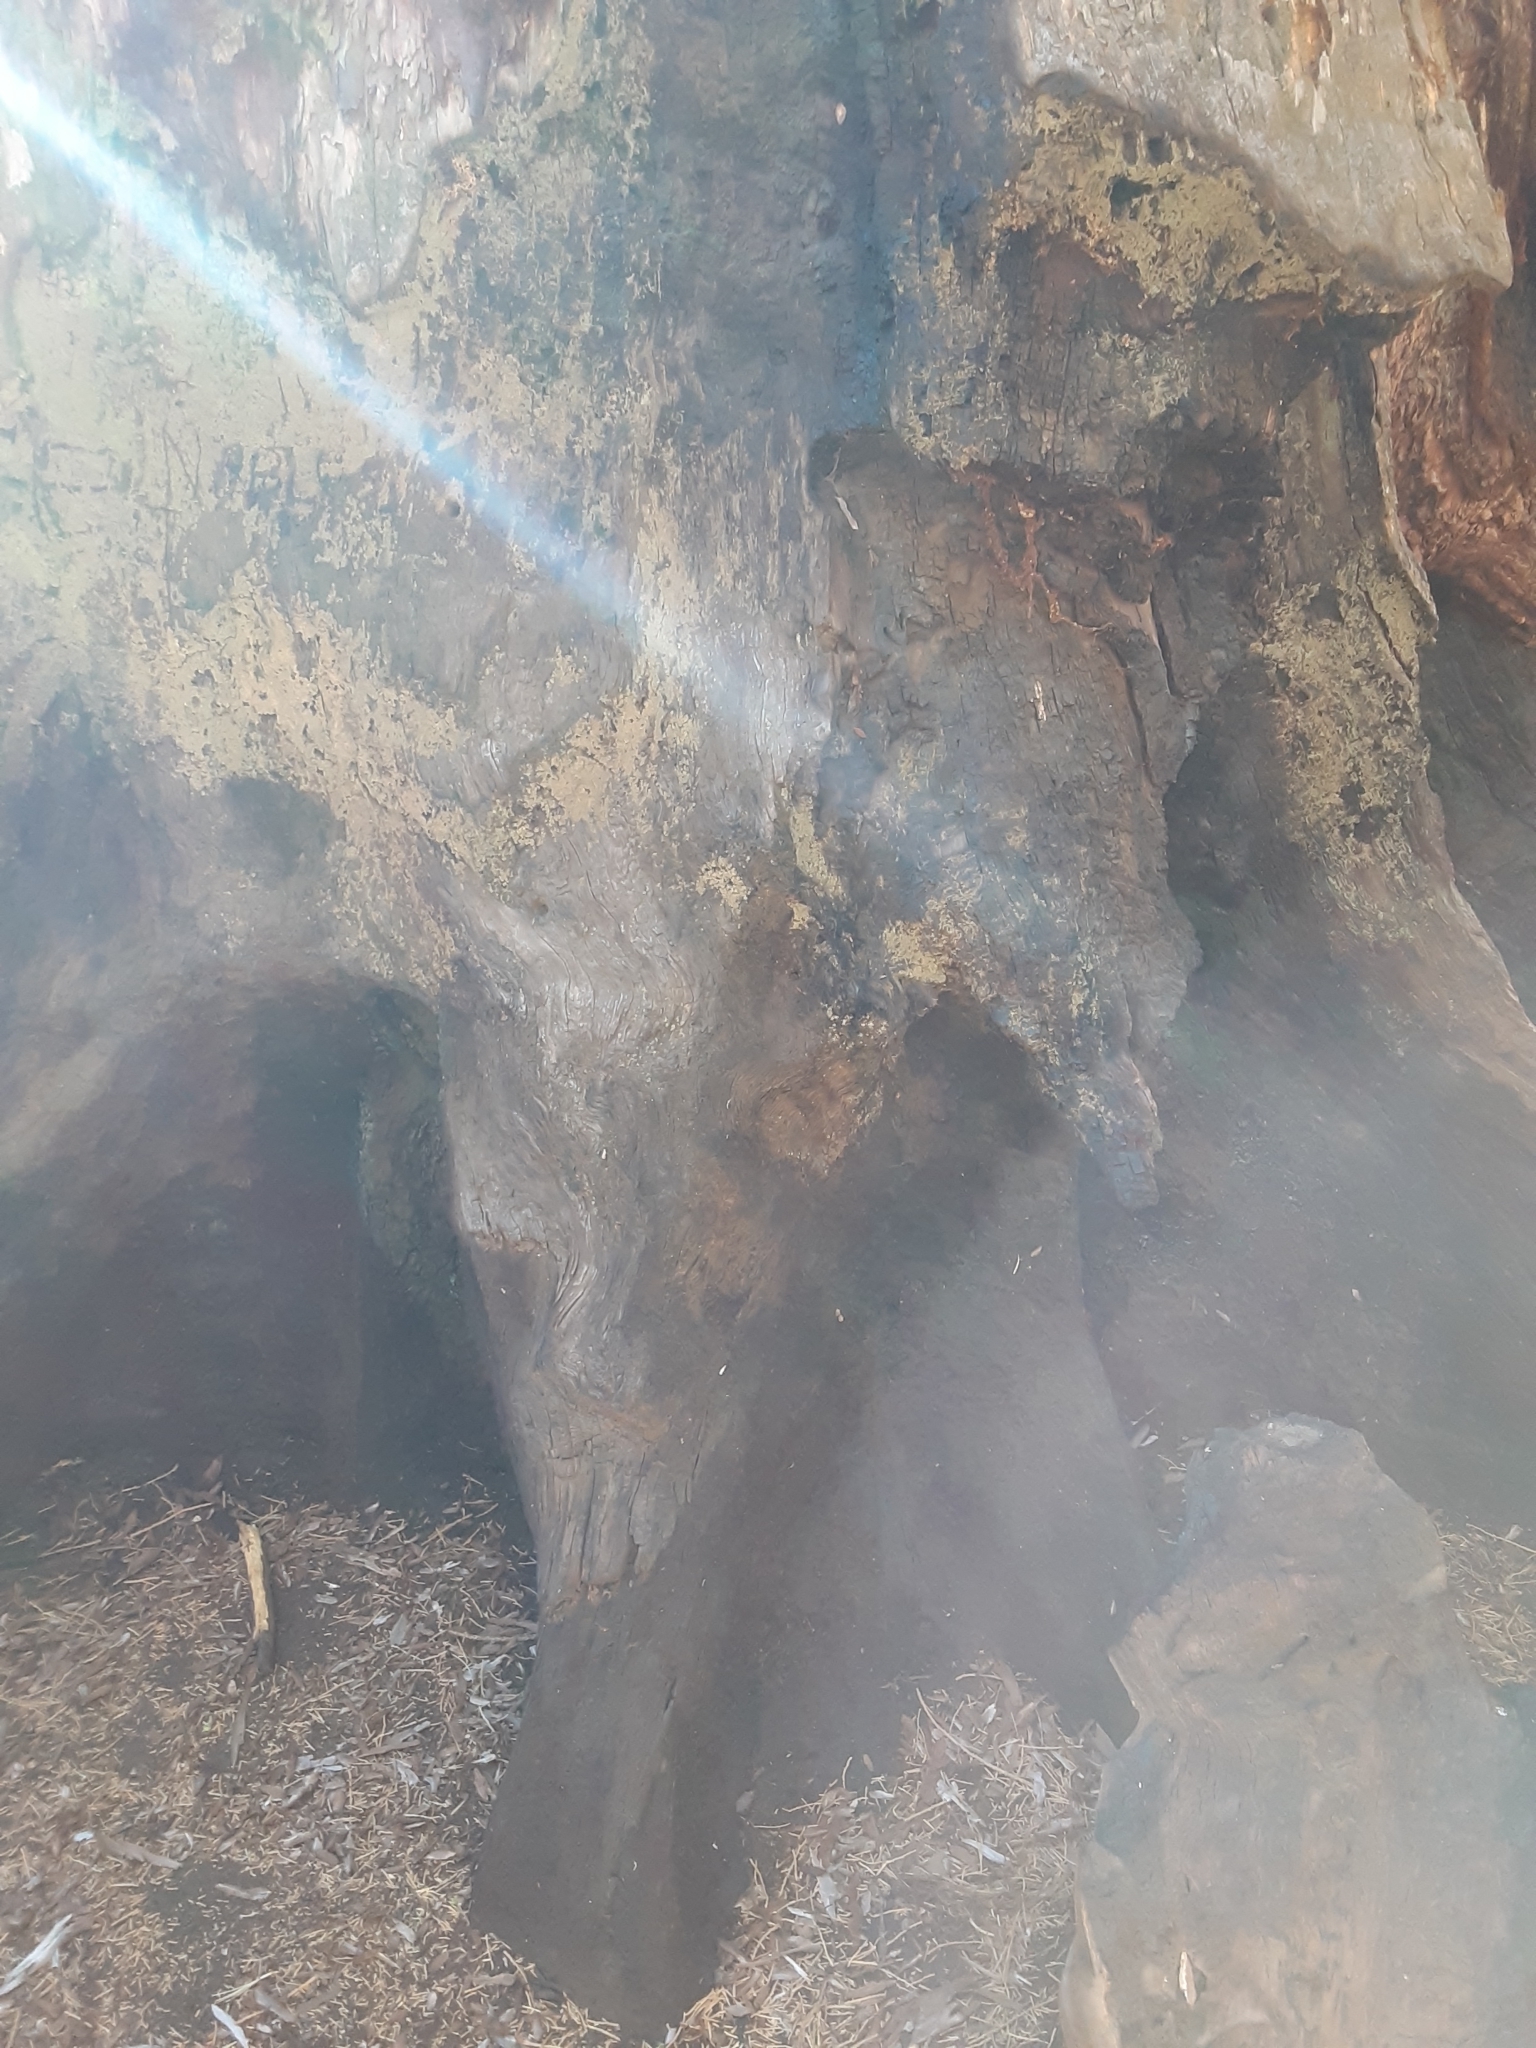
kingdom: Plantae
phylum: Tracheophyta
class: Pinopsida
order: Pinales
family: Cupressaceae
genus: Sequoiadendron
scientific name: Sequoiadendron giganteum
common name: Wellingtonia
